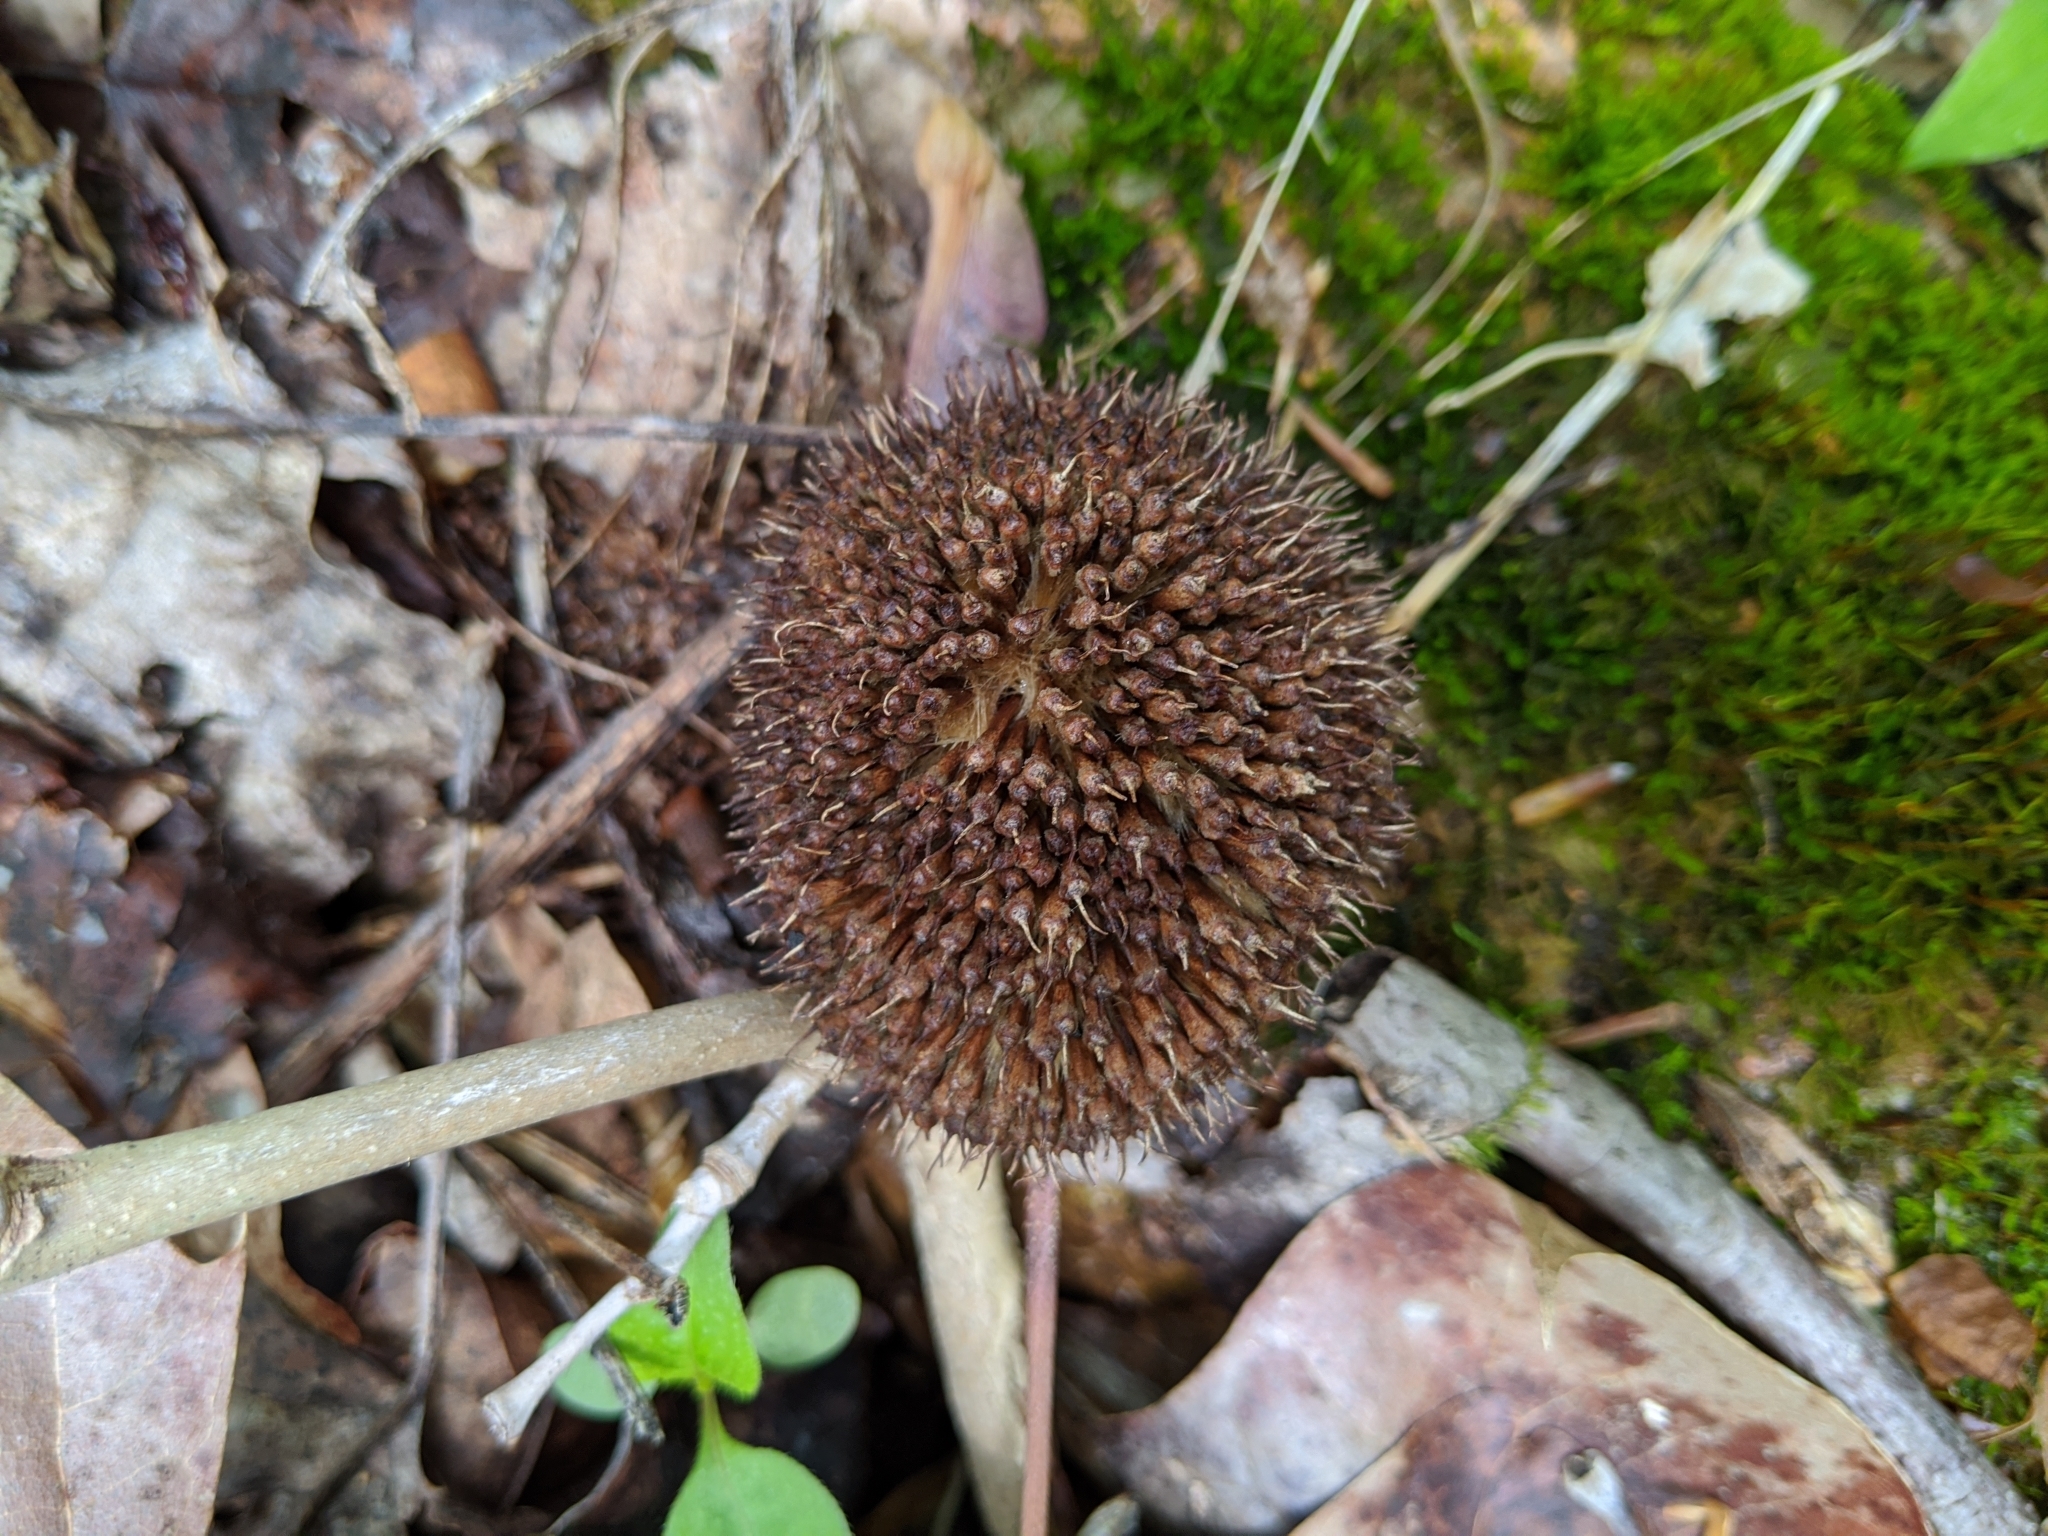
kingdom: Plantae
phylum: Tracheophyta
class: Magnoliopsida
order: Proteales
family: Platanaceae
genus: Platanus
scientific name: Platanus occidentalis
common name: American sycamore
